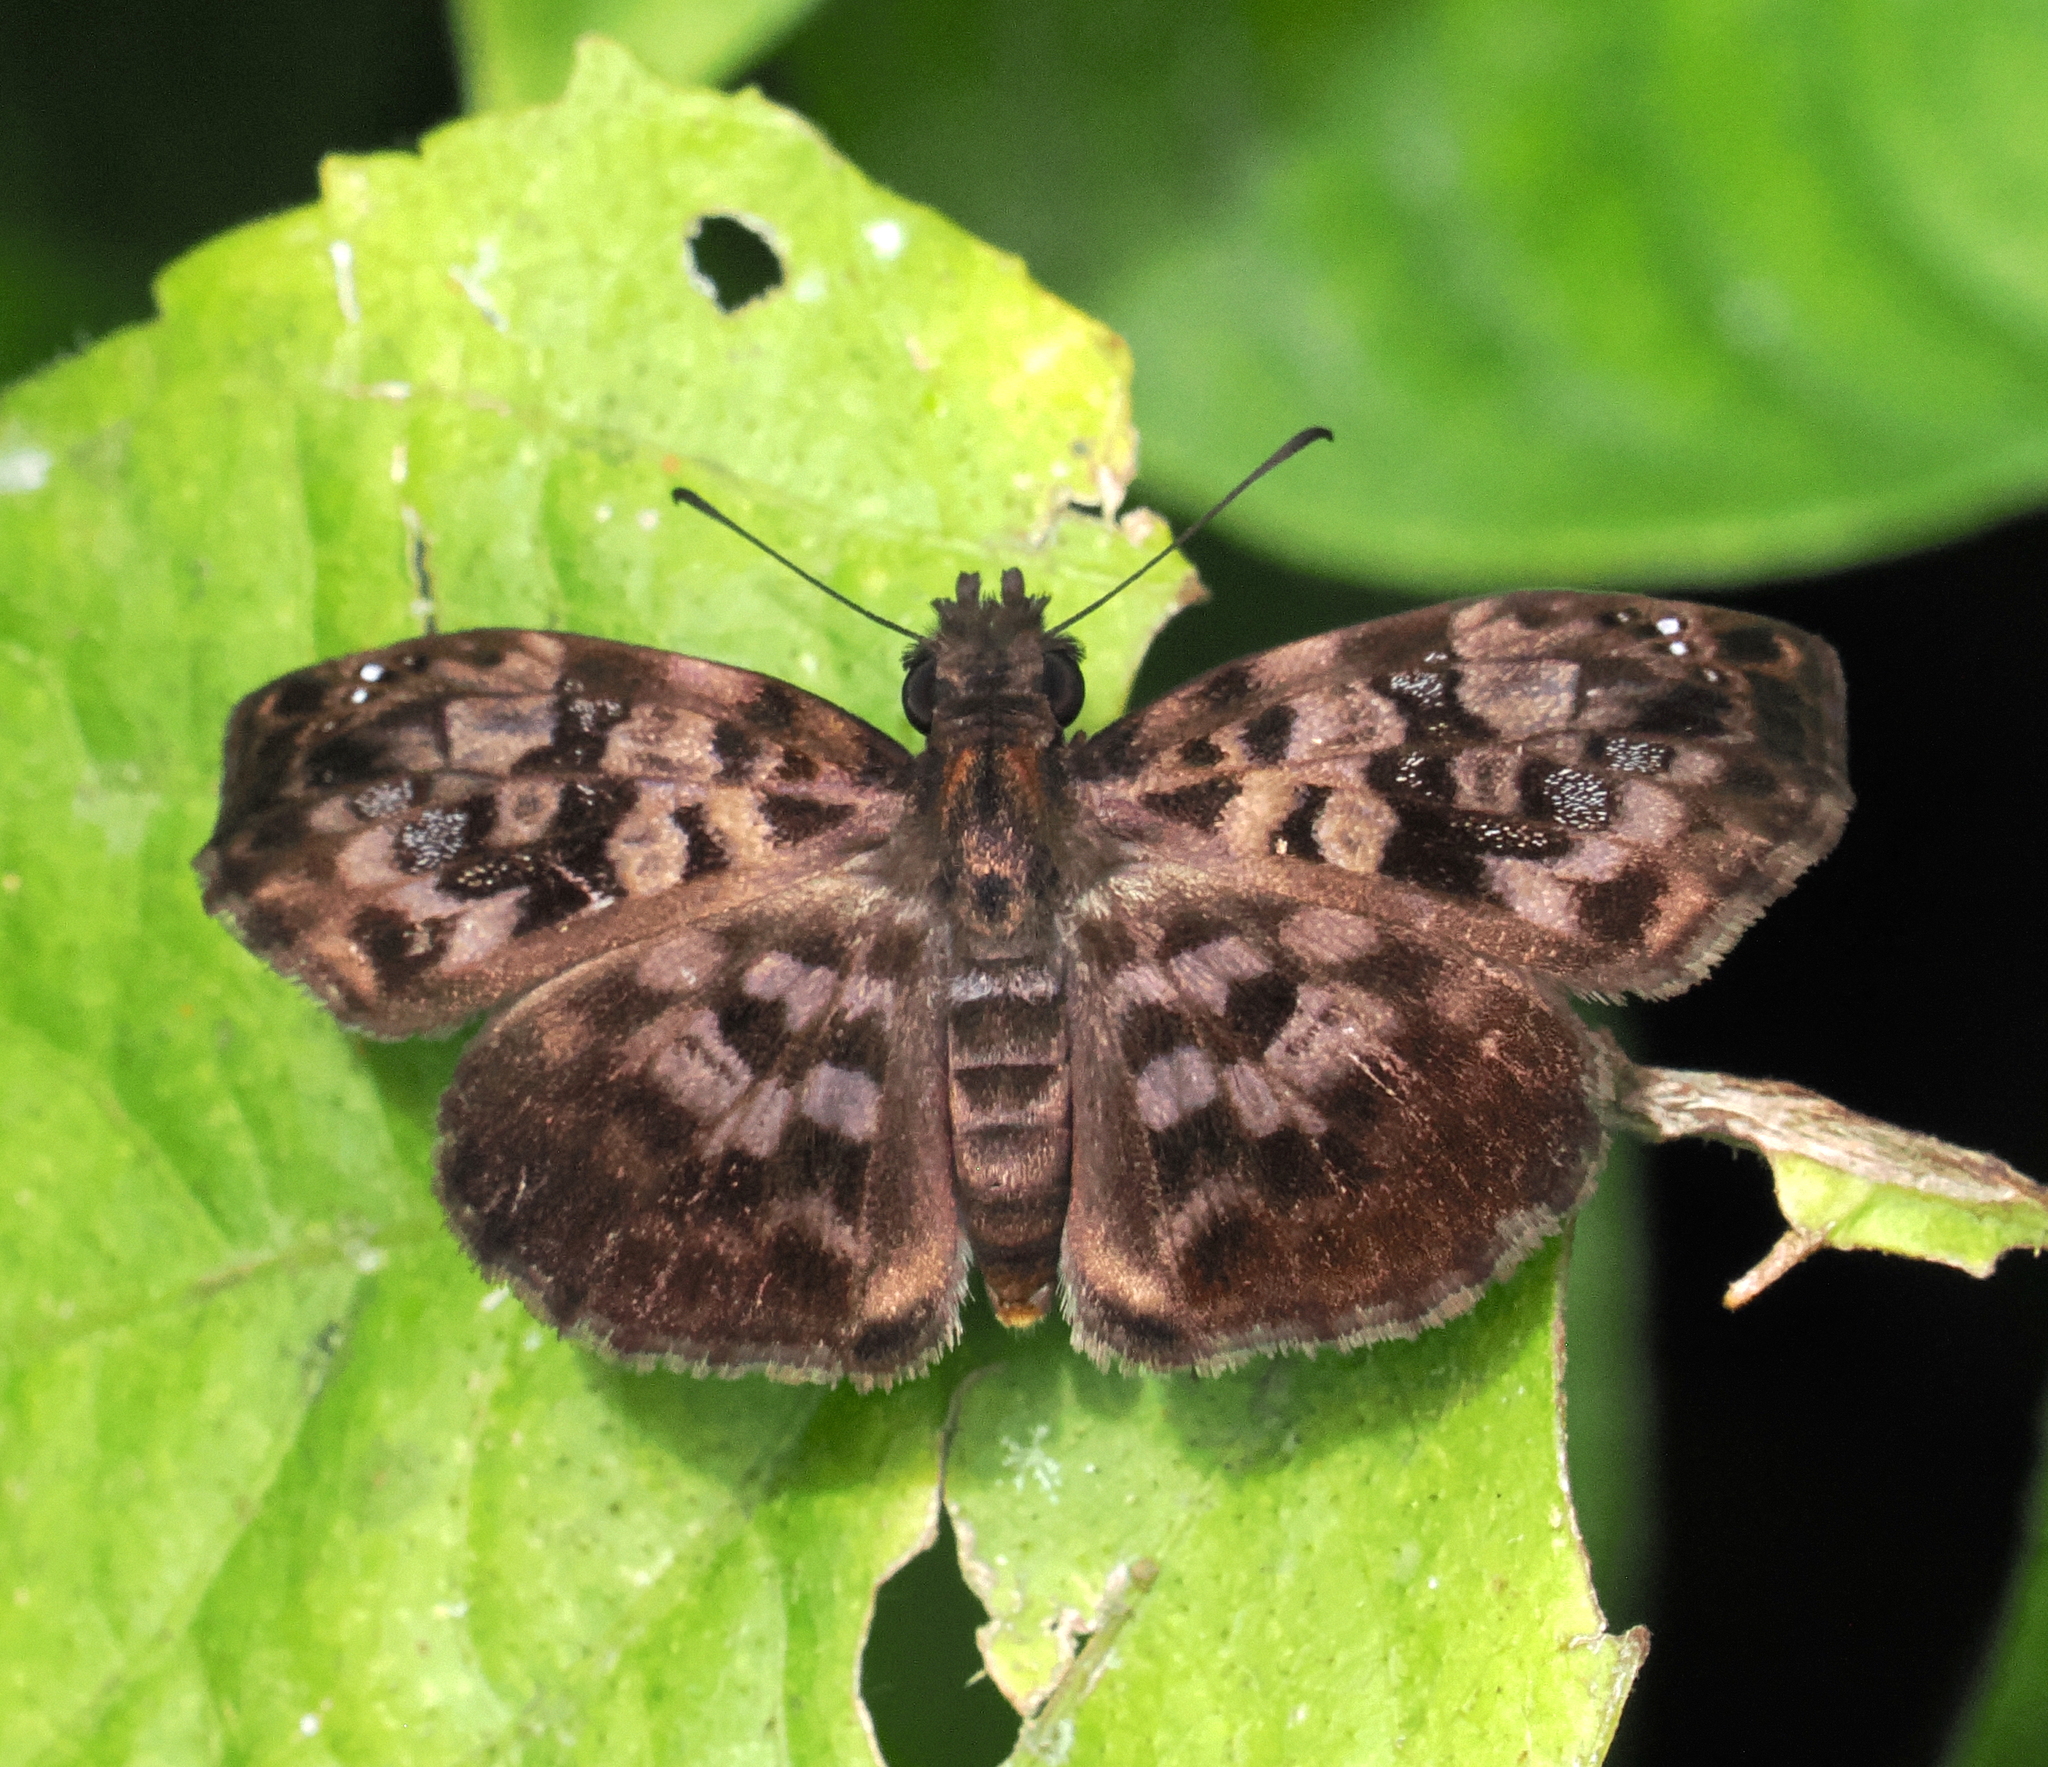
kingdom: Animalia
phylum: Arthropoda
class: Insecta
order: Lepidoptera
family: Hesperiidae
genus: Gorgythion
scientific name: Gorgythion begga
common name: Variegated skipper
